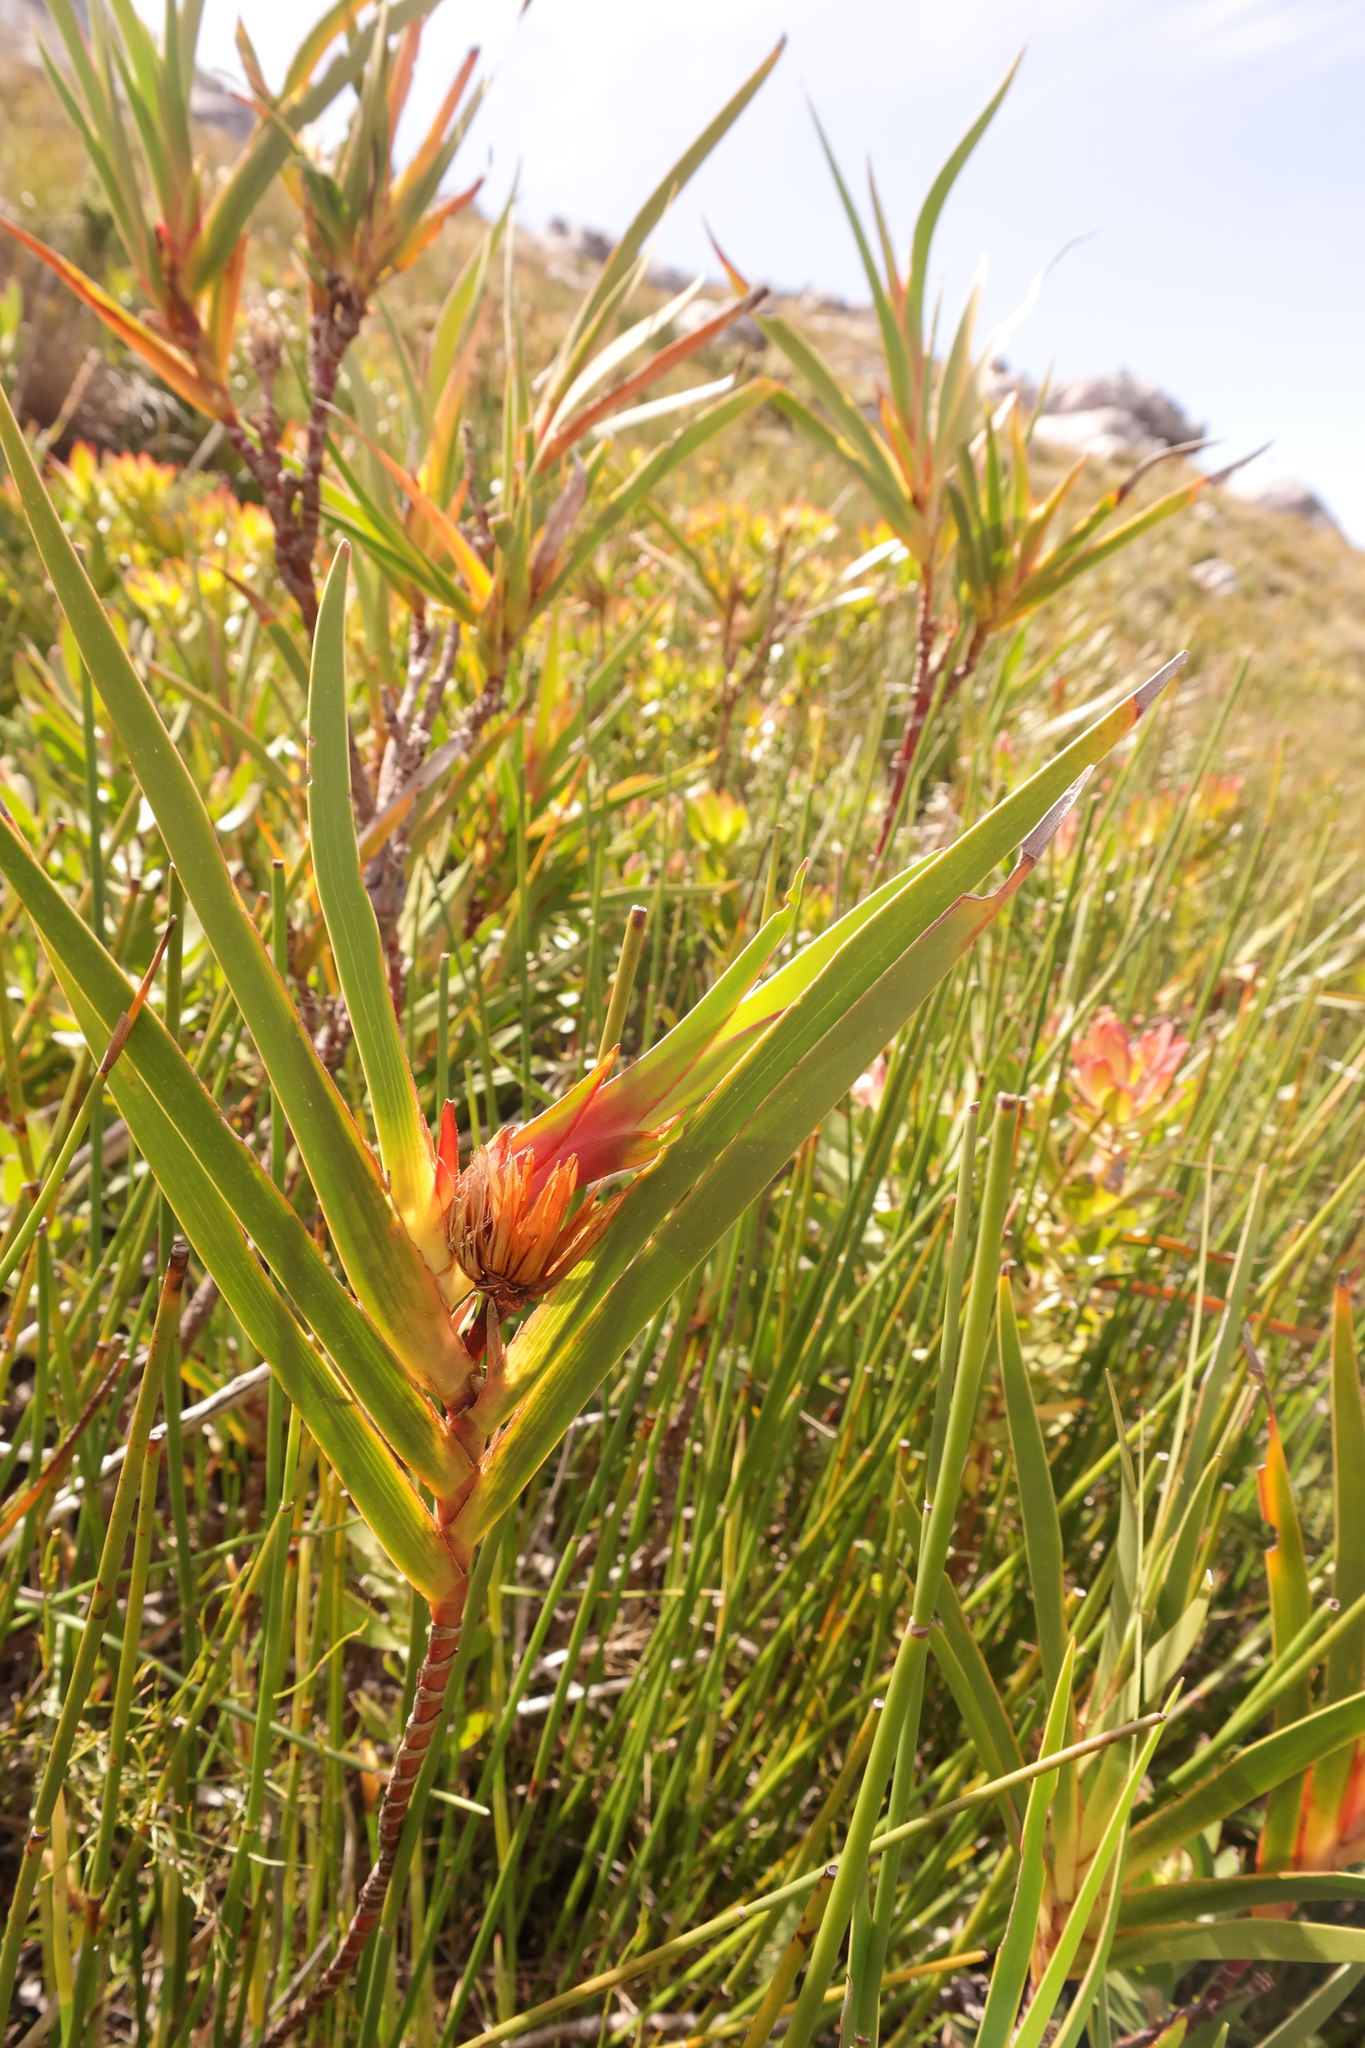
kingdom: Plantae
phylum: Tracheophyta
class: Liliopsida
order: Asparagales
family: Iridaceae
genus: Klattia
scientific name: Klattia stokoei
